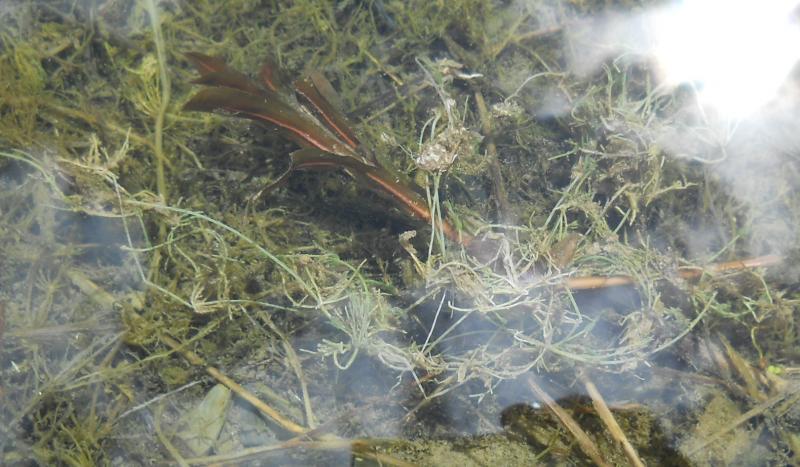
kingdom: Plantae
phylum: Tracheophyta
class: Liliopsida
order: Alismatales
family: Potamogetonaceae
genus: Potamogeton
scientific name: Potamogeton crispus
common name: Curled pondweed
